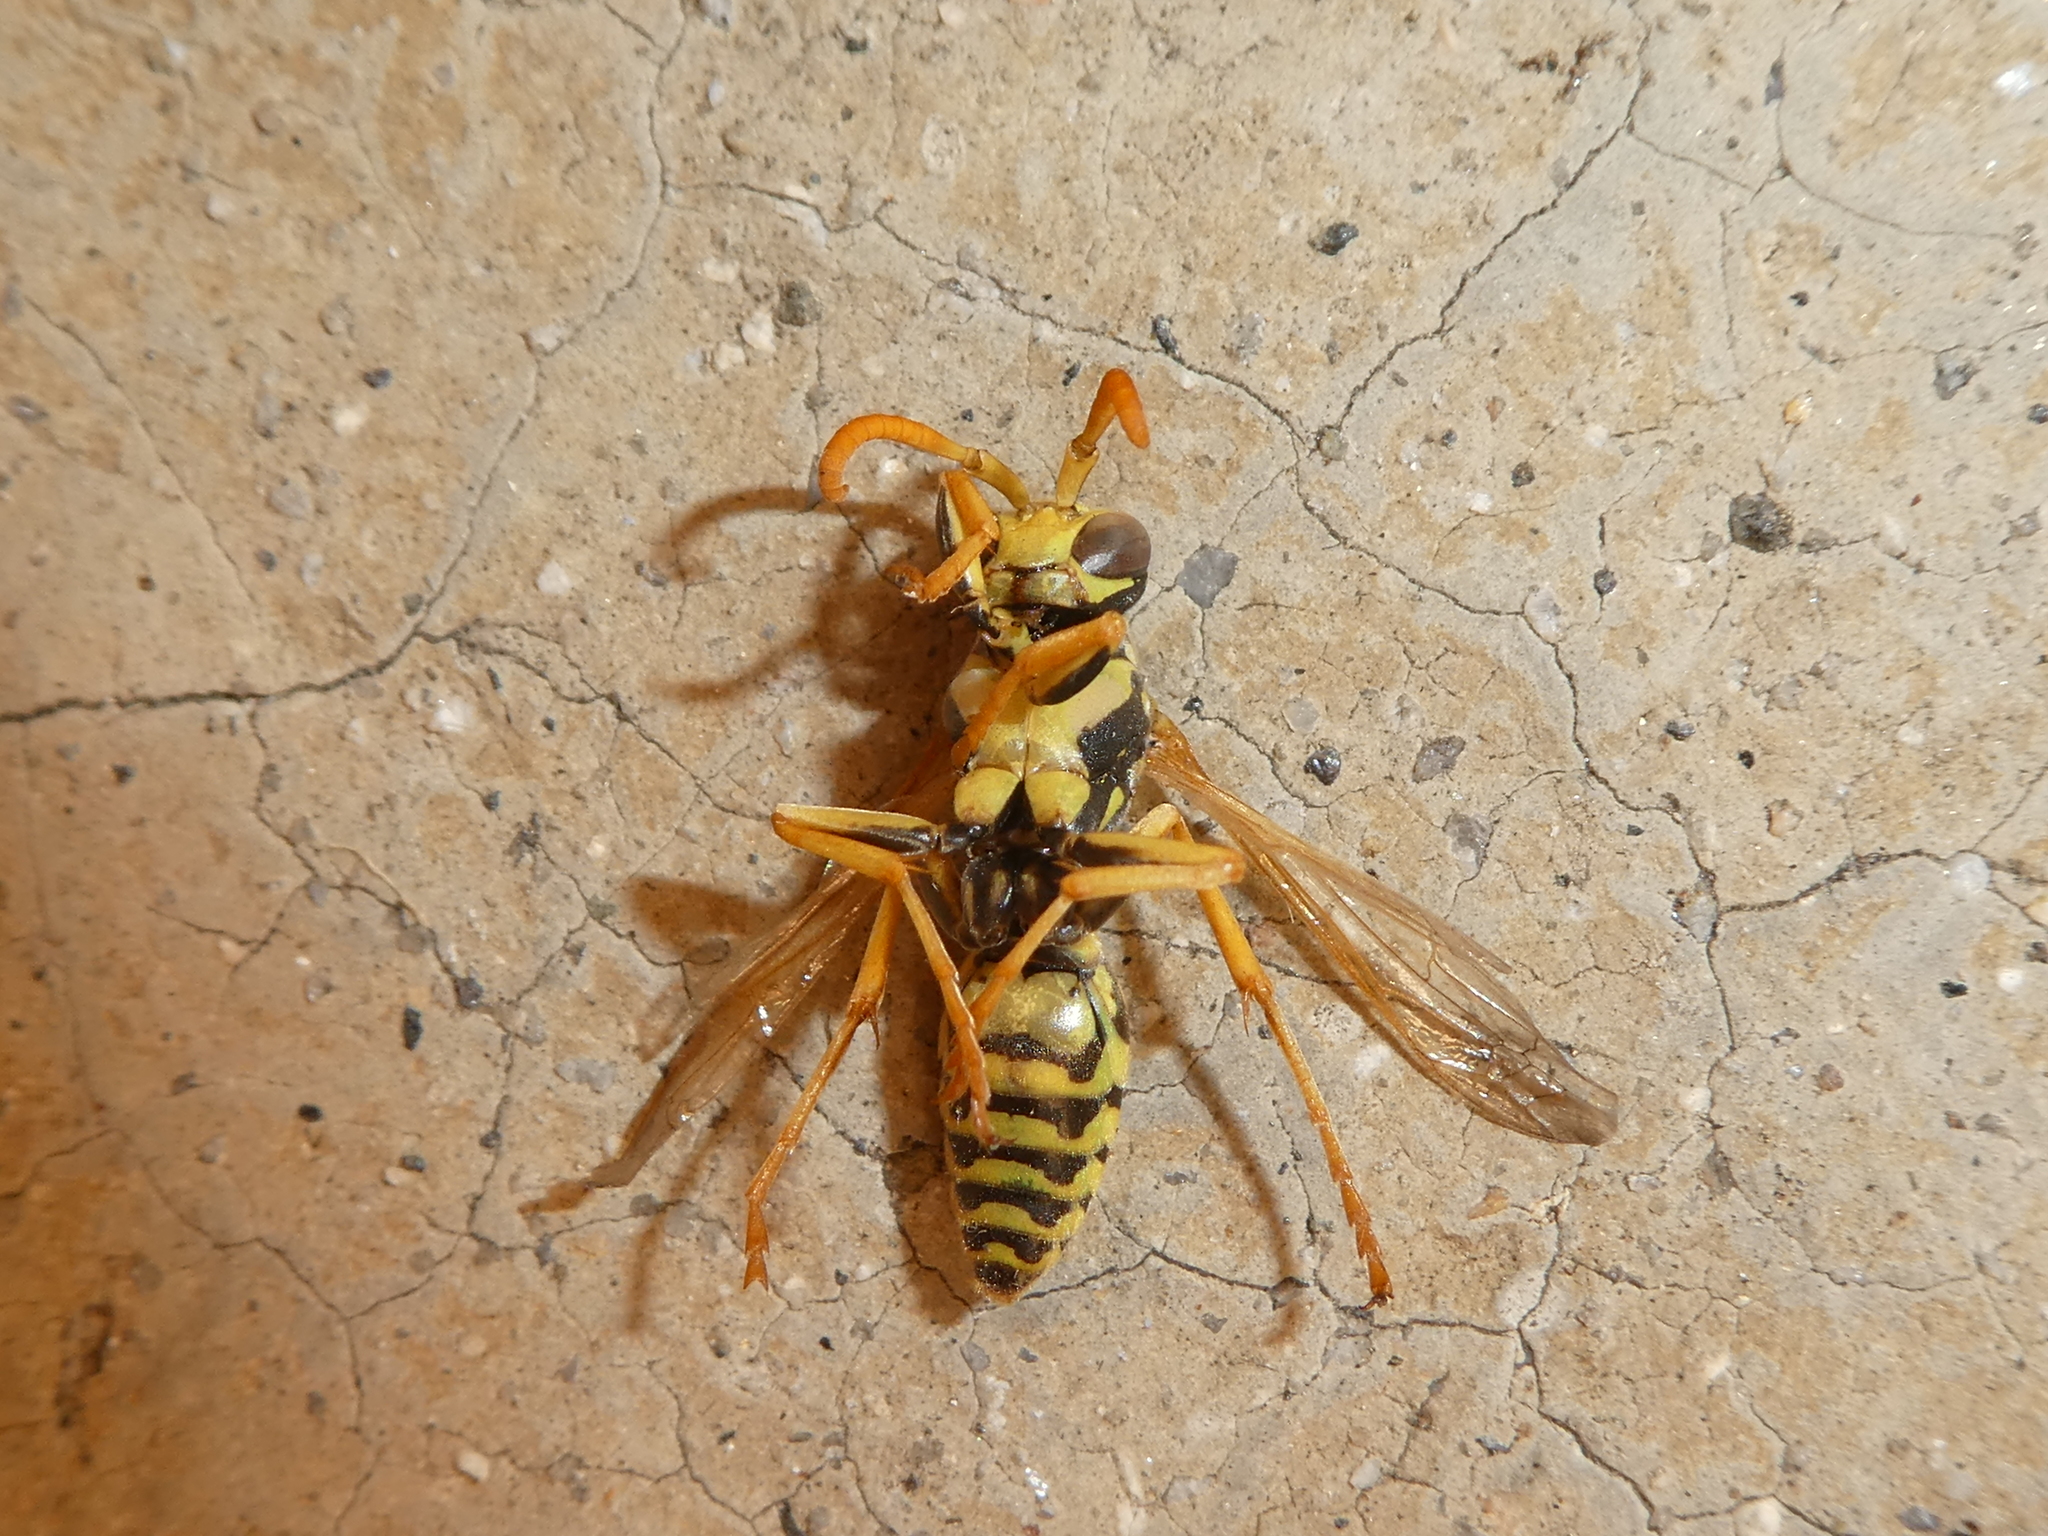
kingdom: Animalia
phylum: Arthropoda
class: Insecta
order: Hymenoptera
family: Eumenidae
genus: Polistes
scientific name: Polistes dominula
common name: Paper wasp
